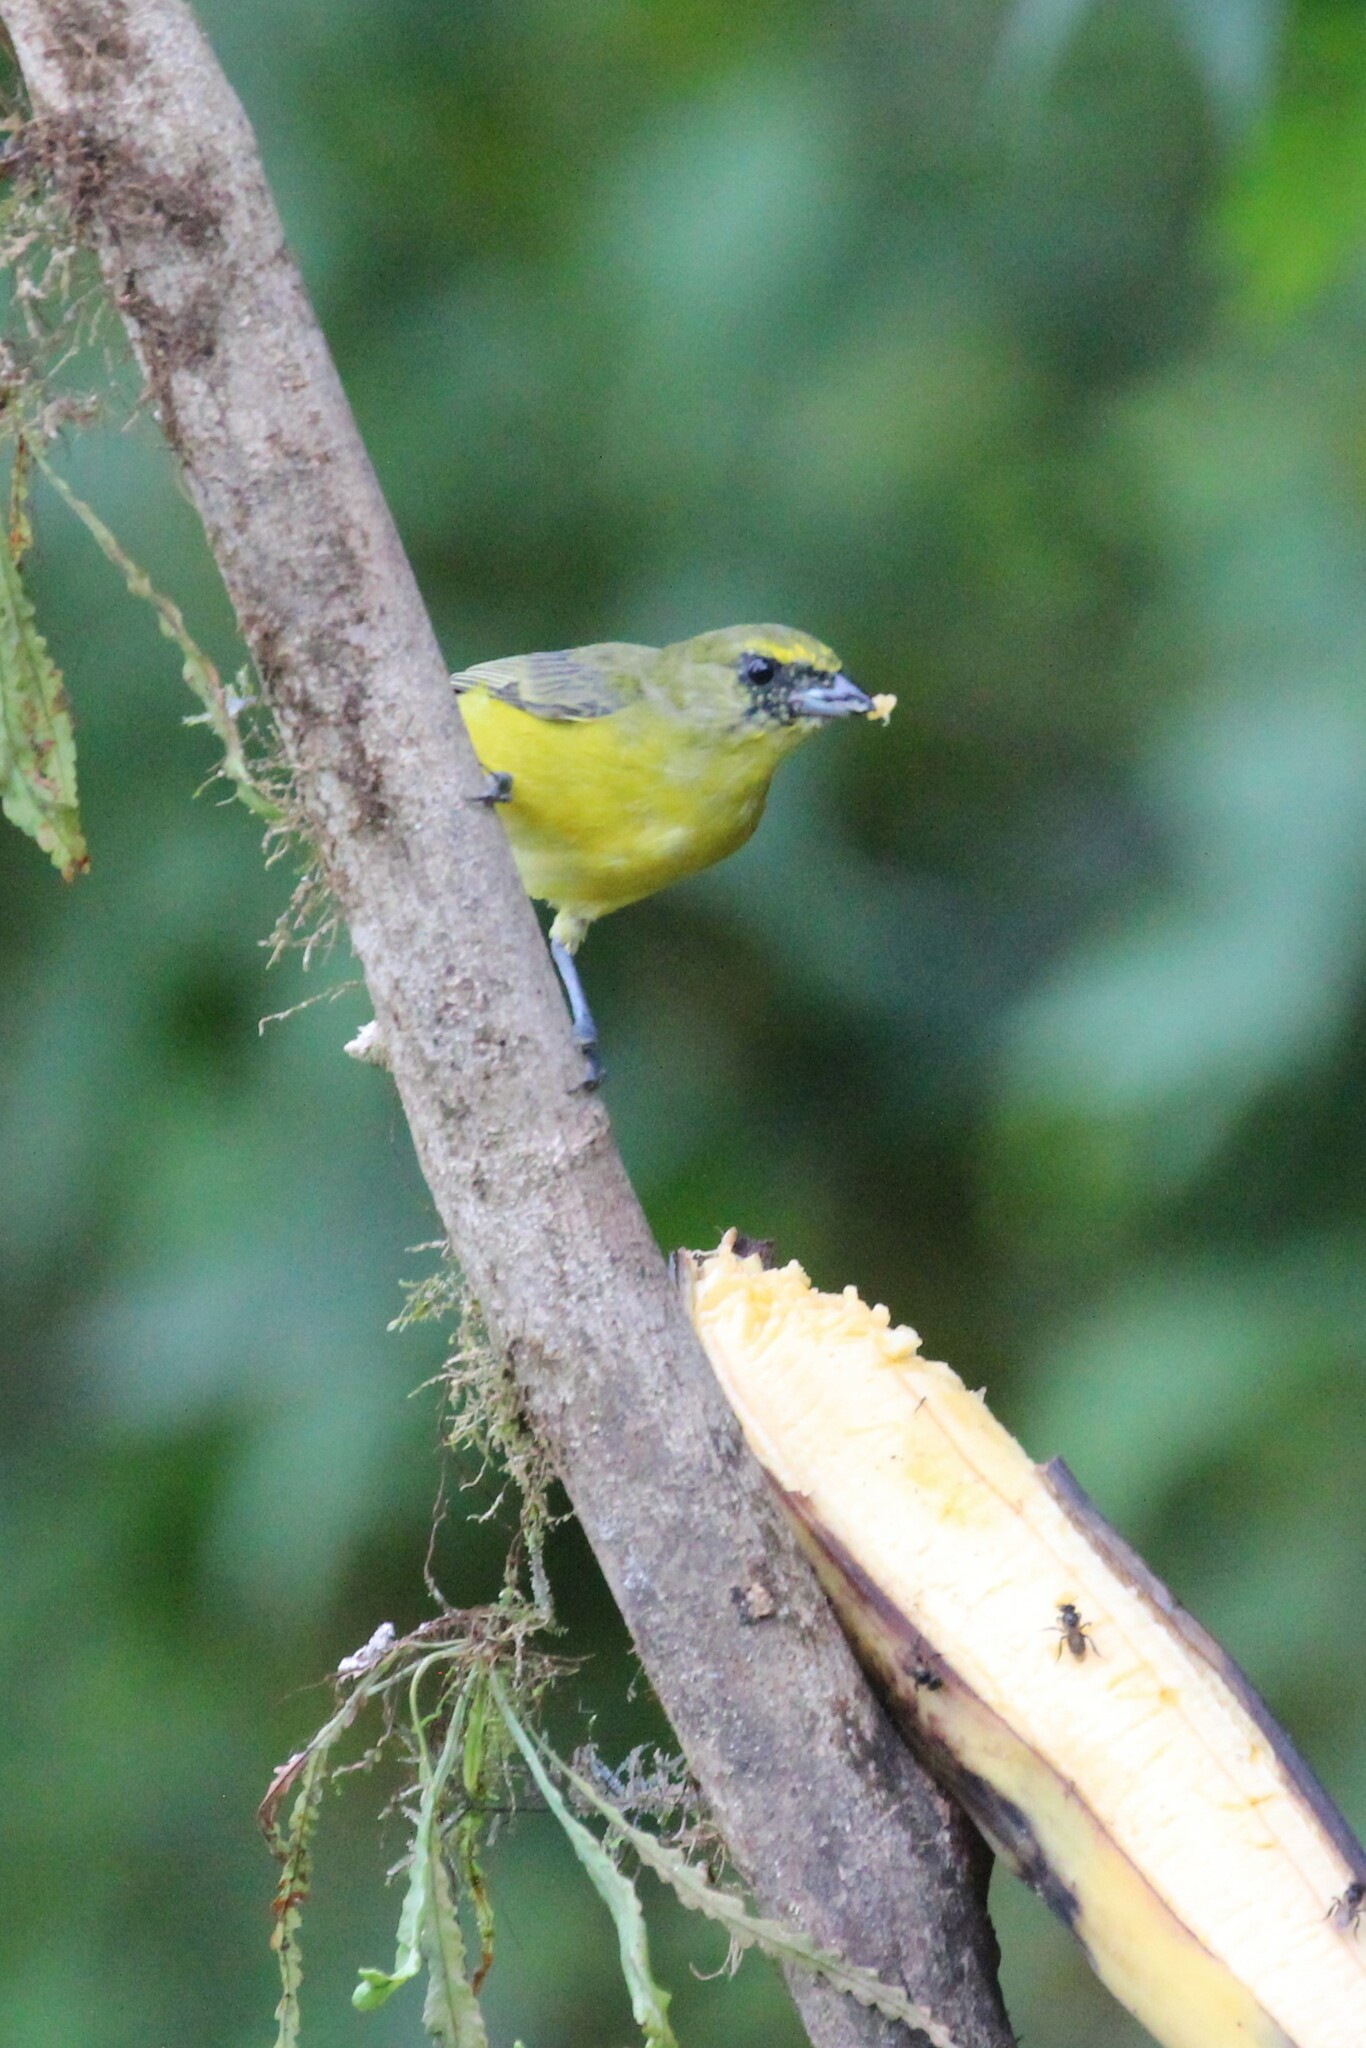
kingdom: Animalia
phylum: Chordata
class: Aves
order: Passeriformes
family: Fringillidae
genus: Euphonia
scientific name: Euphonia laniirostris
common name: Thick-billed euphonia
